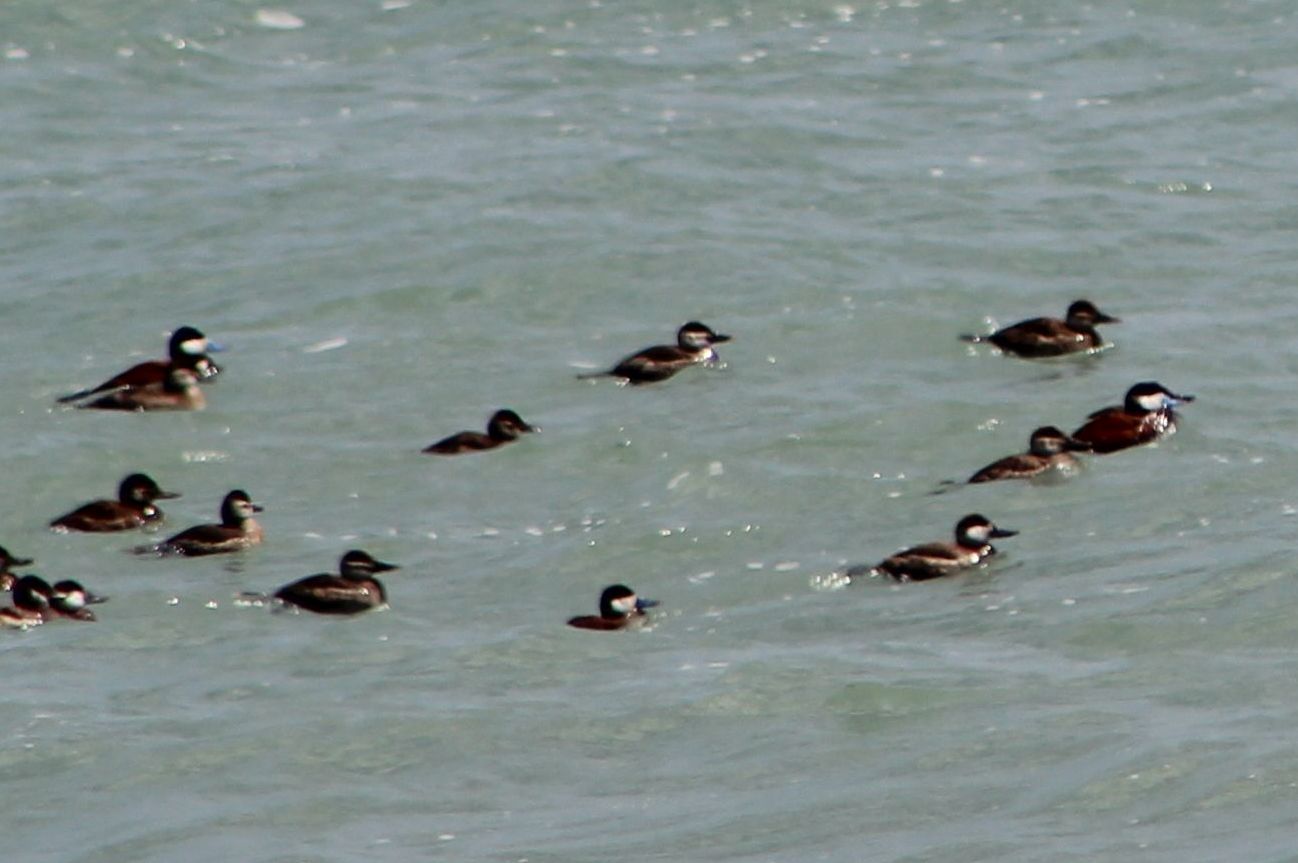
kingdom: Animalia
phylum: Chordata
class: Aves
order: Anseriformes
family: Anatidae
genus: Oxyura
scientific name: Oxyura jamaicensis
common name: Ruddy duck
